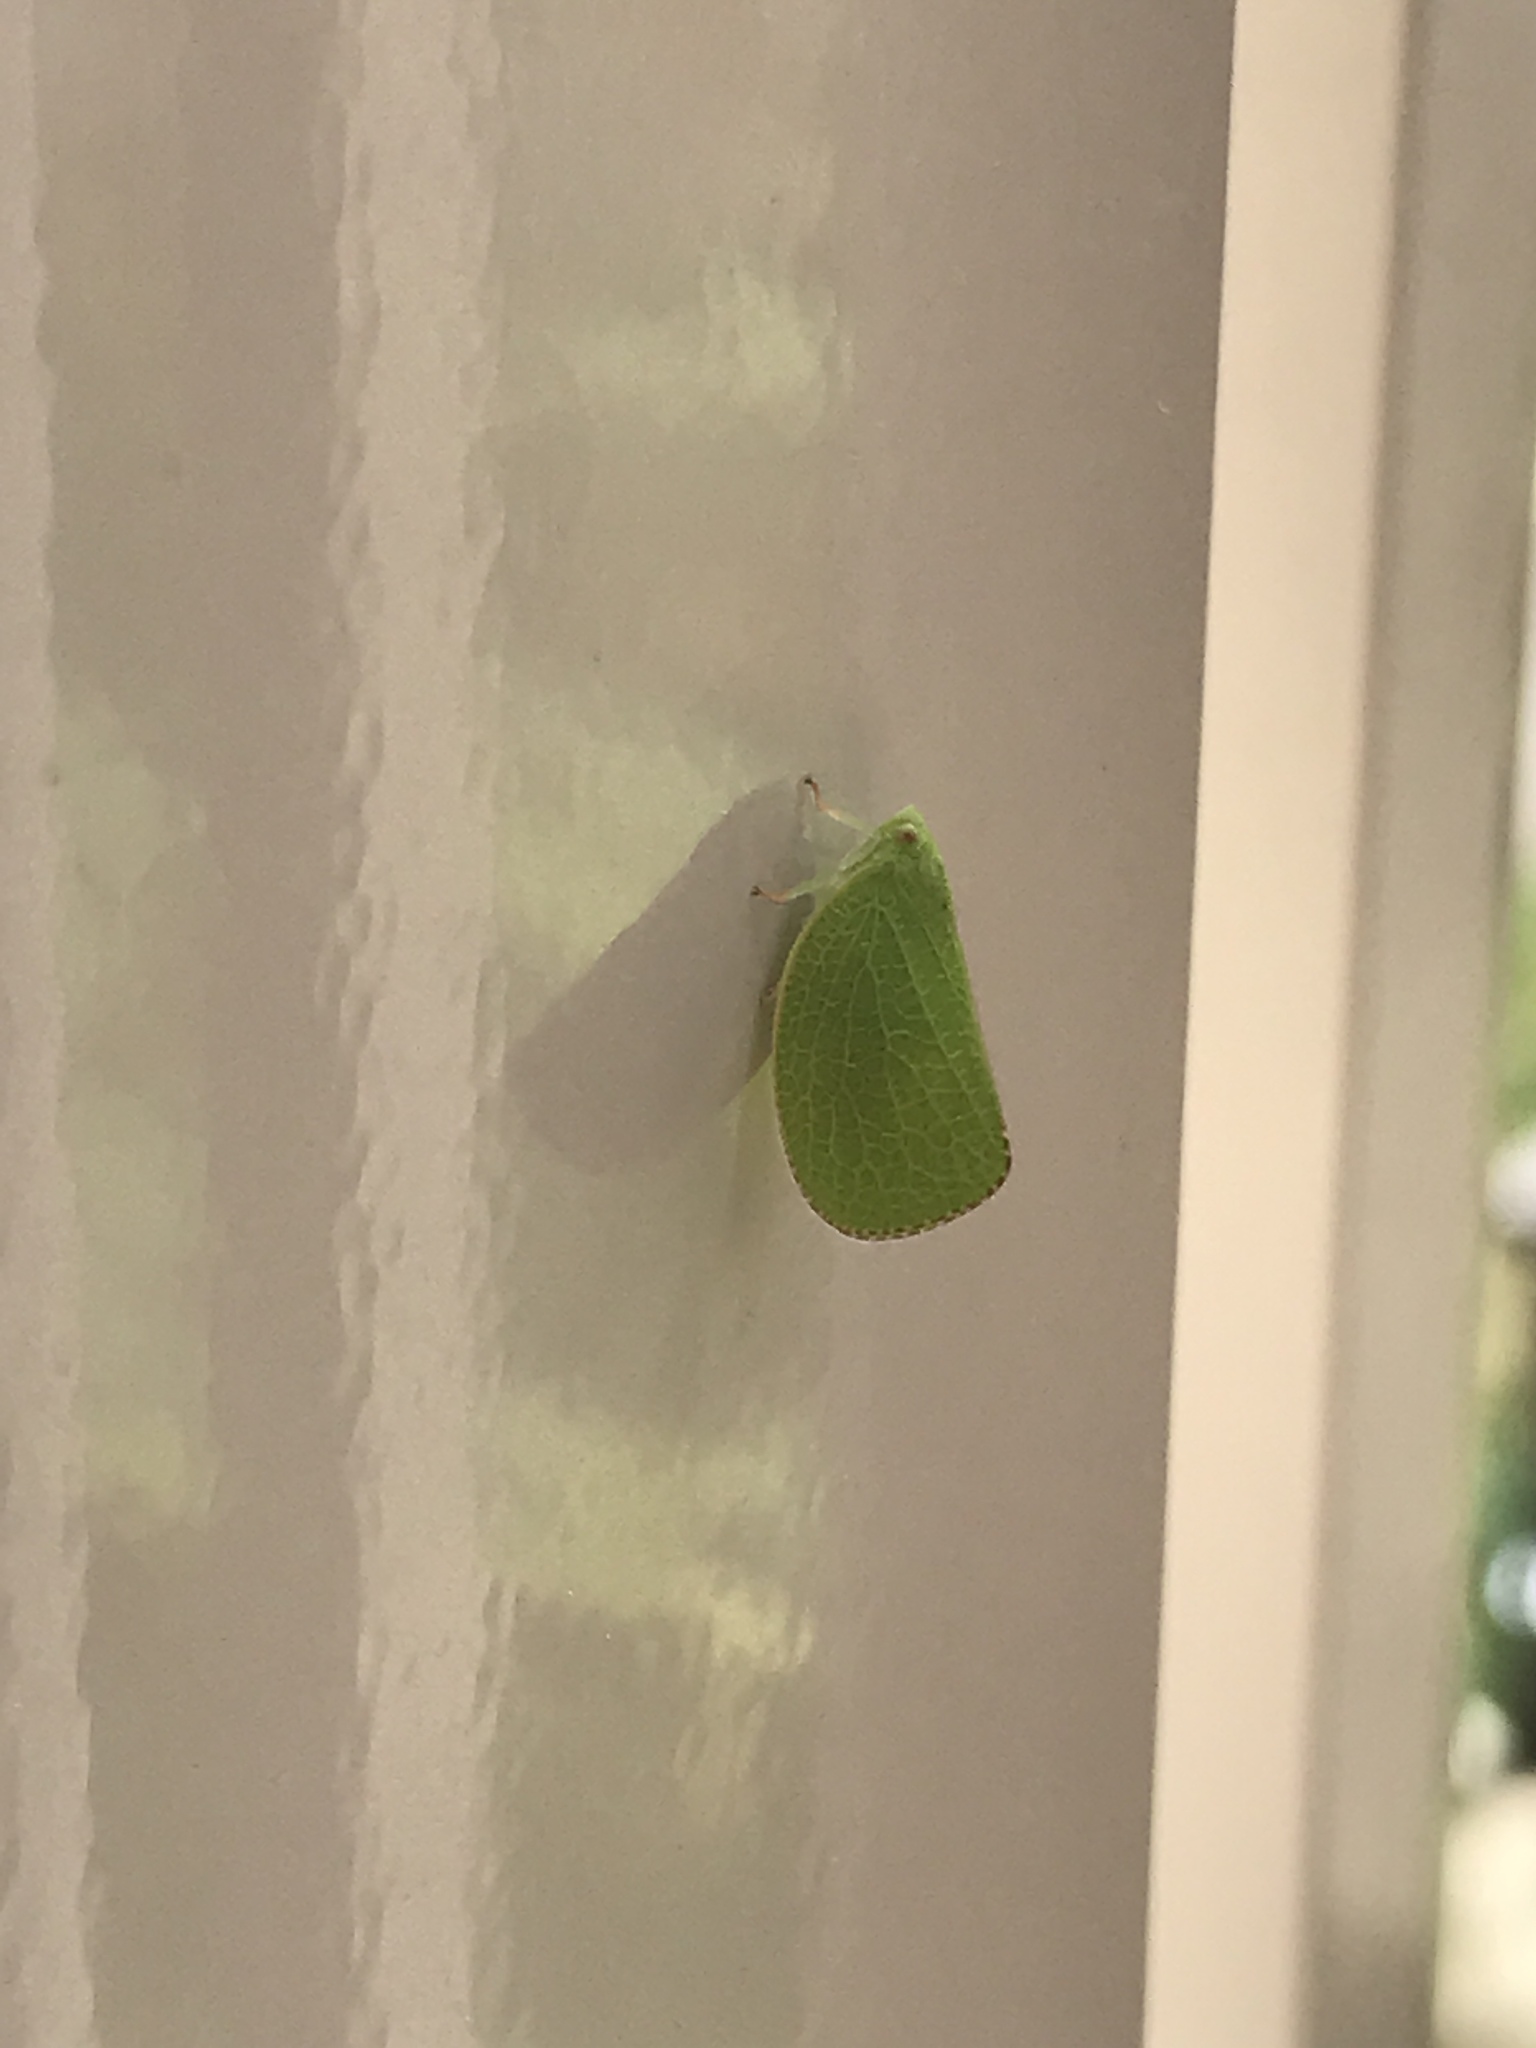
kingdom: Animalia
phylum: Arthropoda
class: Insecta
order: Hemiptera
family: Acanaloniidae
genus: Acanalonia
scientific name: Acanalonia conica
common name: Green cone-headed planthopper
